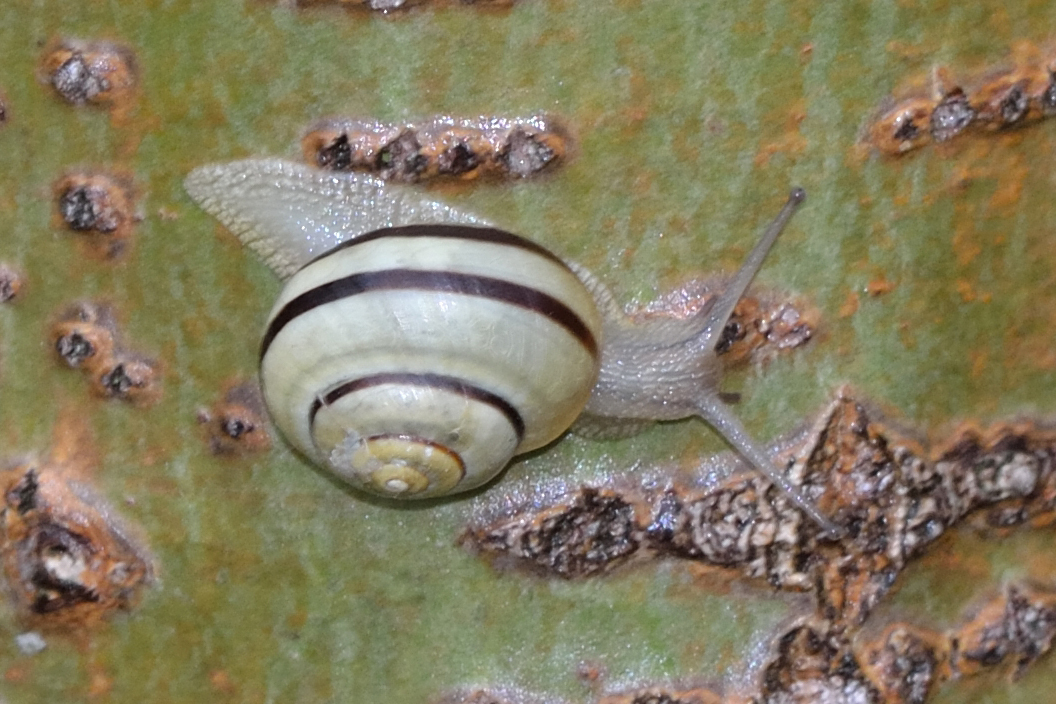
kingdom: Animalia
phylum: Mollusca
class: Gastropoda
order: Stylommatophora
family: Helicidae
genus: Cepaea
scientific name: Cepaea nemoralis
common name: Grovesnail
